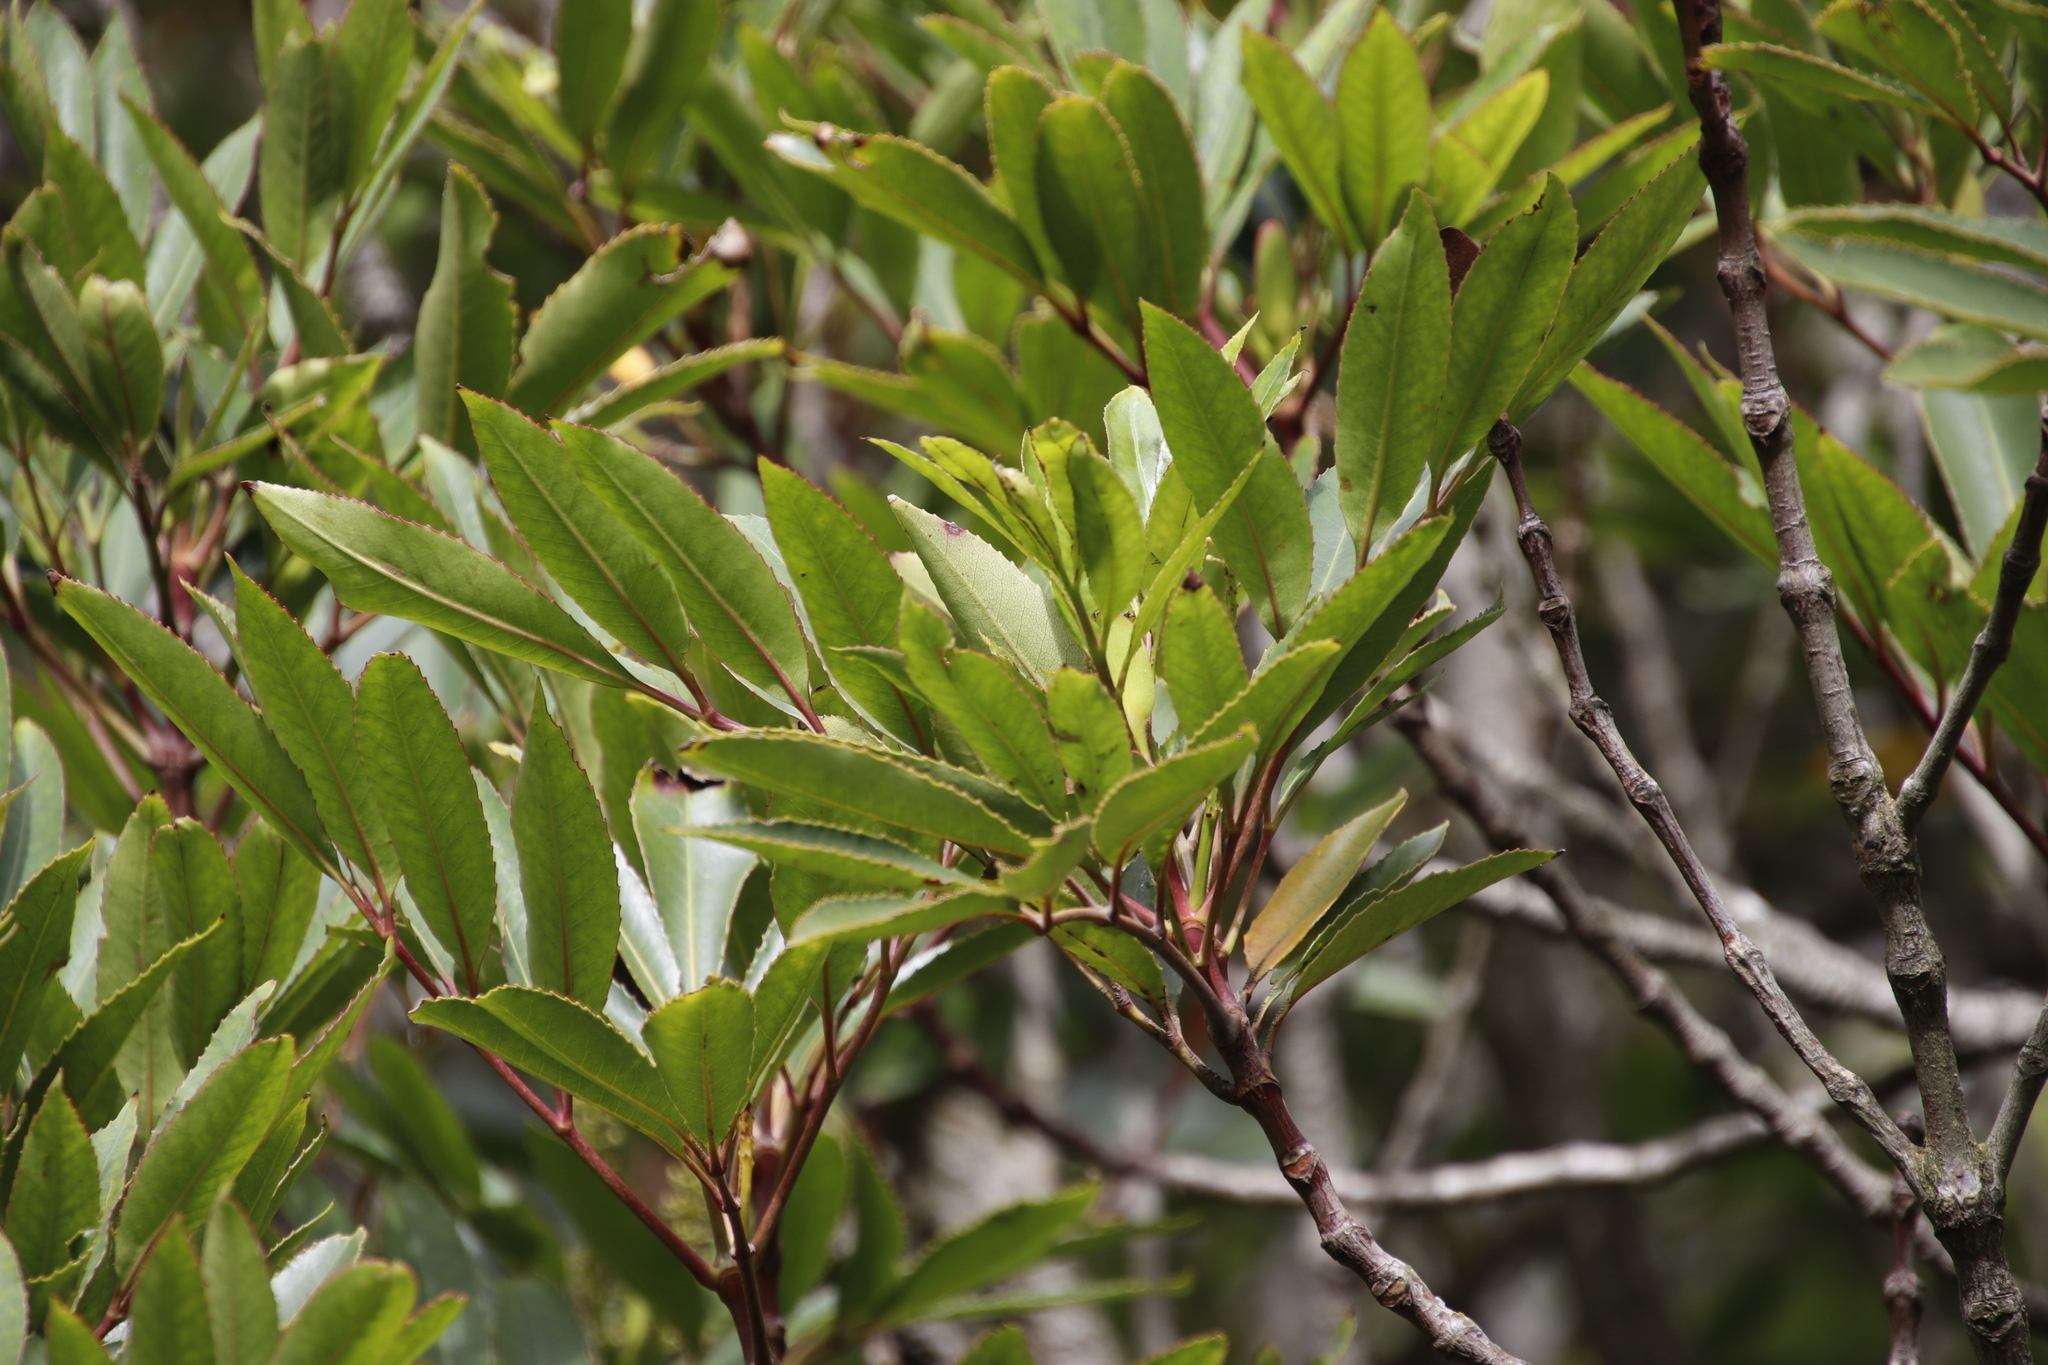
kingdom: Plantae
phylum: Tracheophyta
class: Magnoliopsida
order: Oxalidales
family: Cunoniaceae
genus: Cunonia
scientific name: Cunonia capensis
